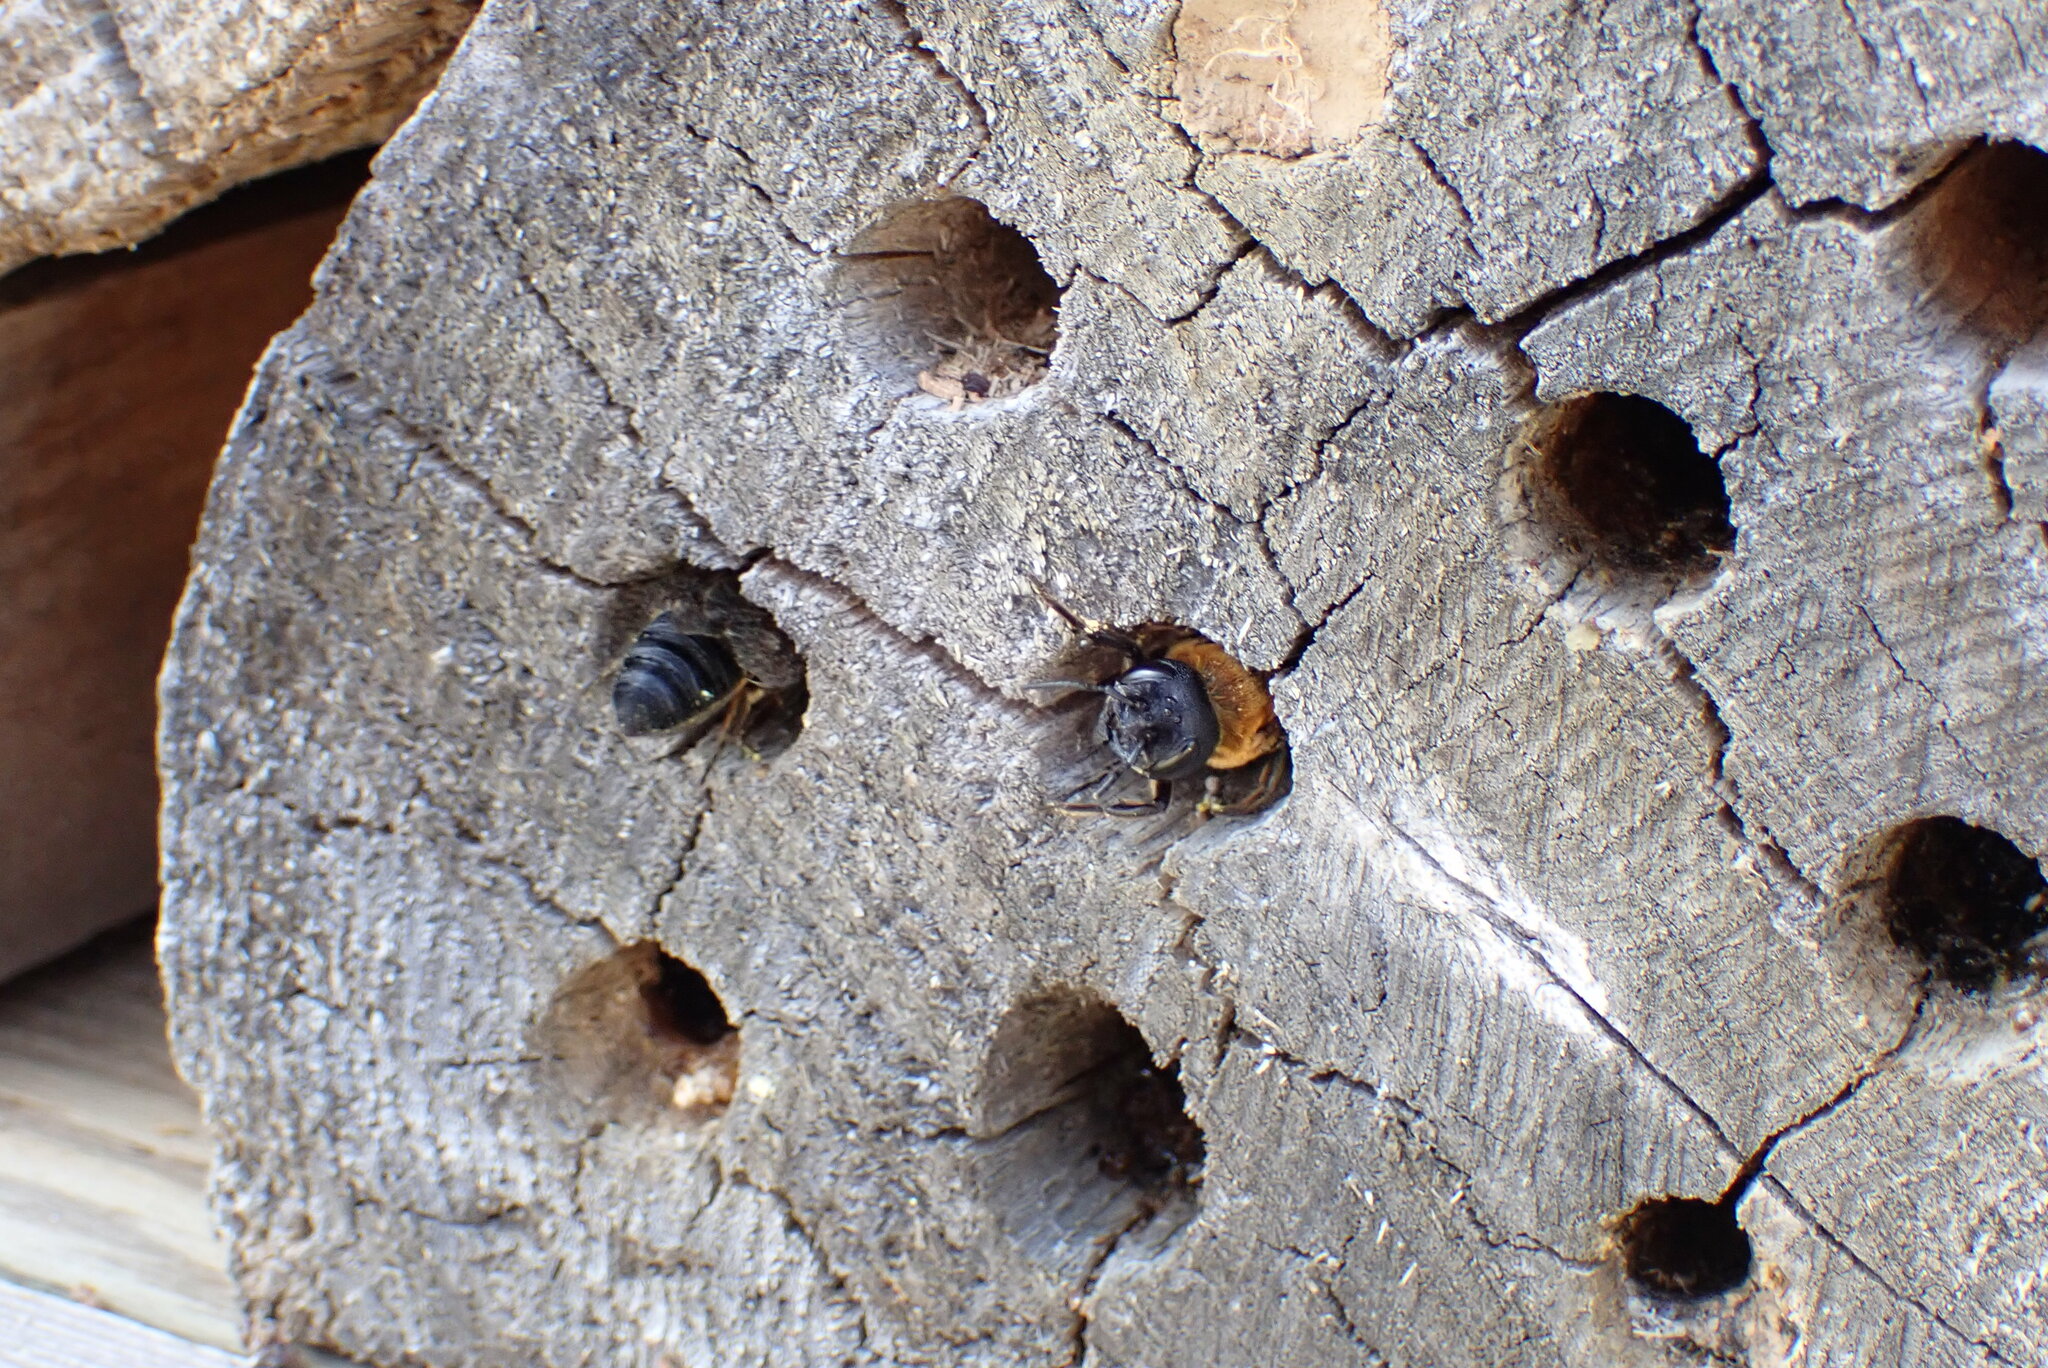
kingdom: Animalia
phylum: Arthropoda
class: Insecta
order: Hymenoptera
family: Megachilidae
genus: Megachile
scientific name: Megachile sculpturalis
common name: Sculptured resin bee
